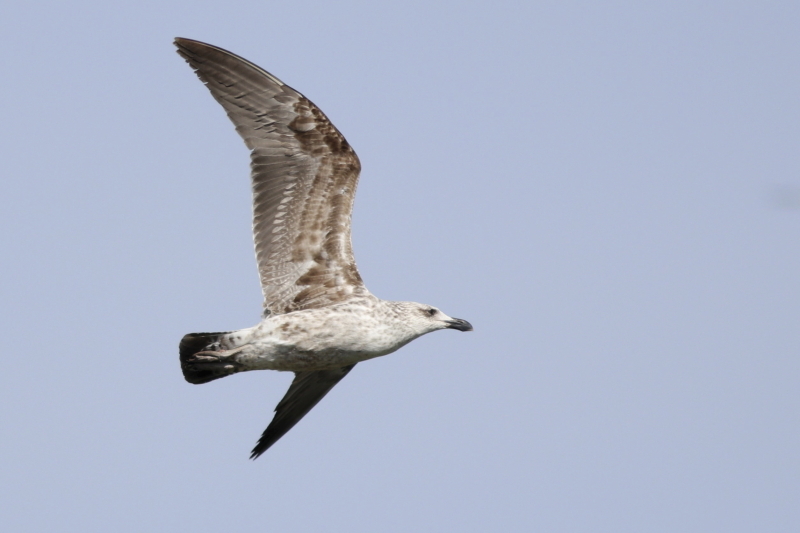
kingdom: Animalia
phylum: Chordata
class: Aves
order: Charadriiformes
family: Laridae
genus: Larus
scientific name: Larus dominicanus
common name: Kelp gull
